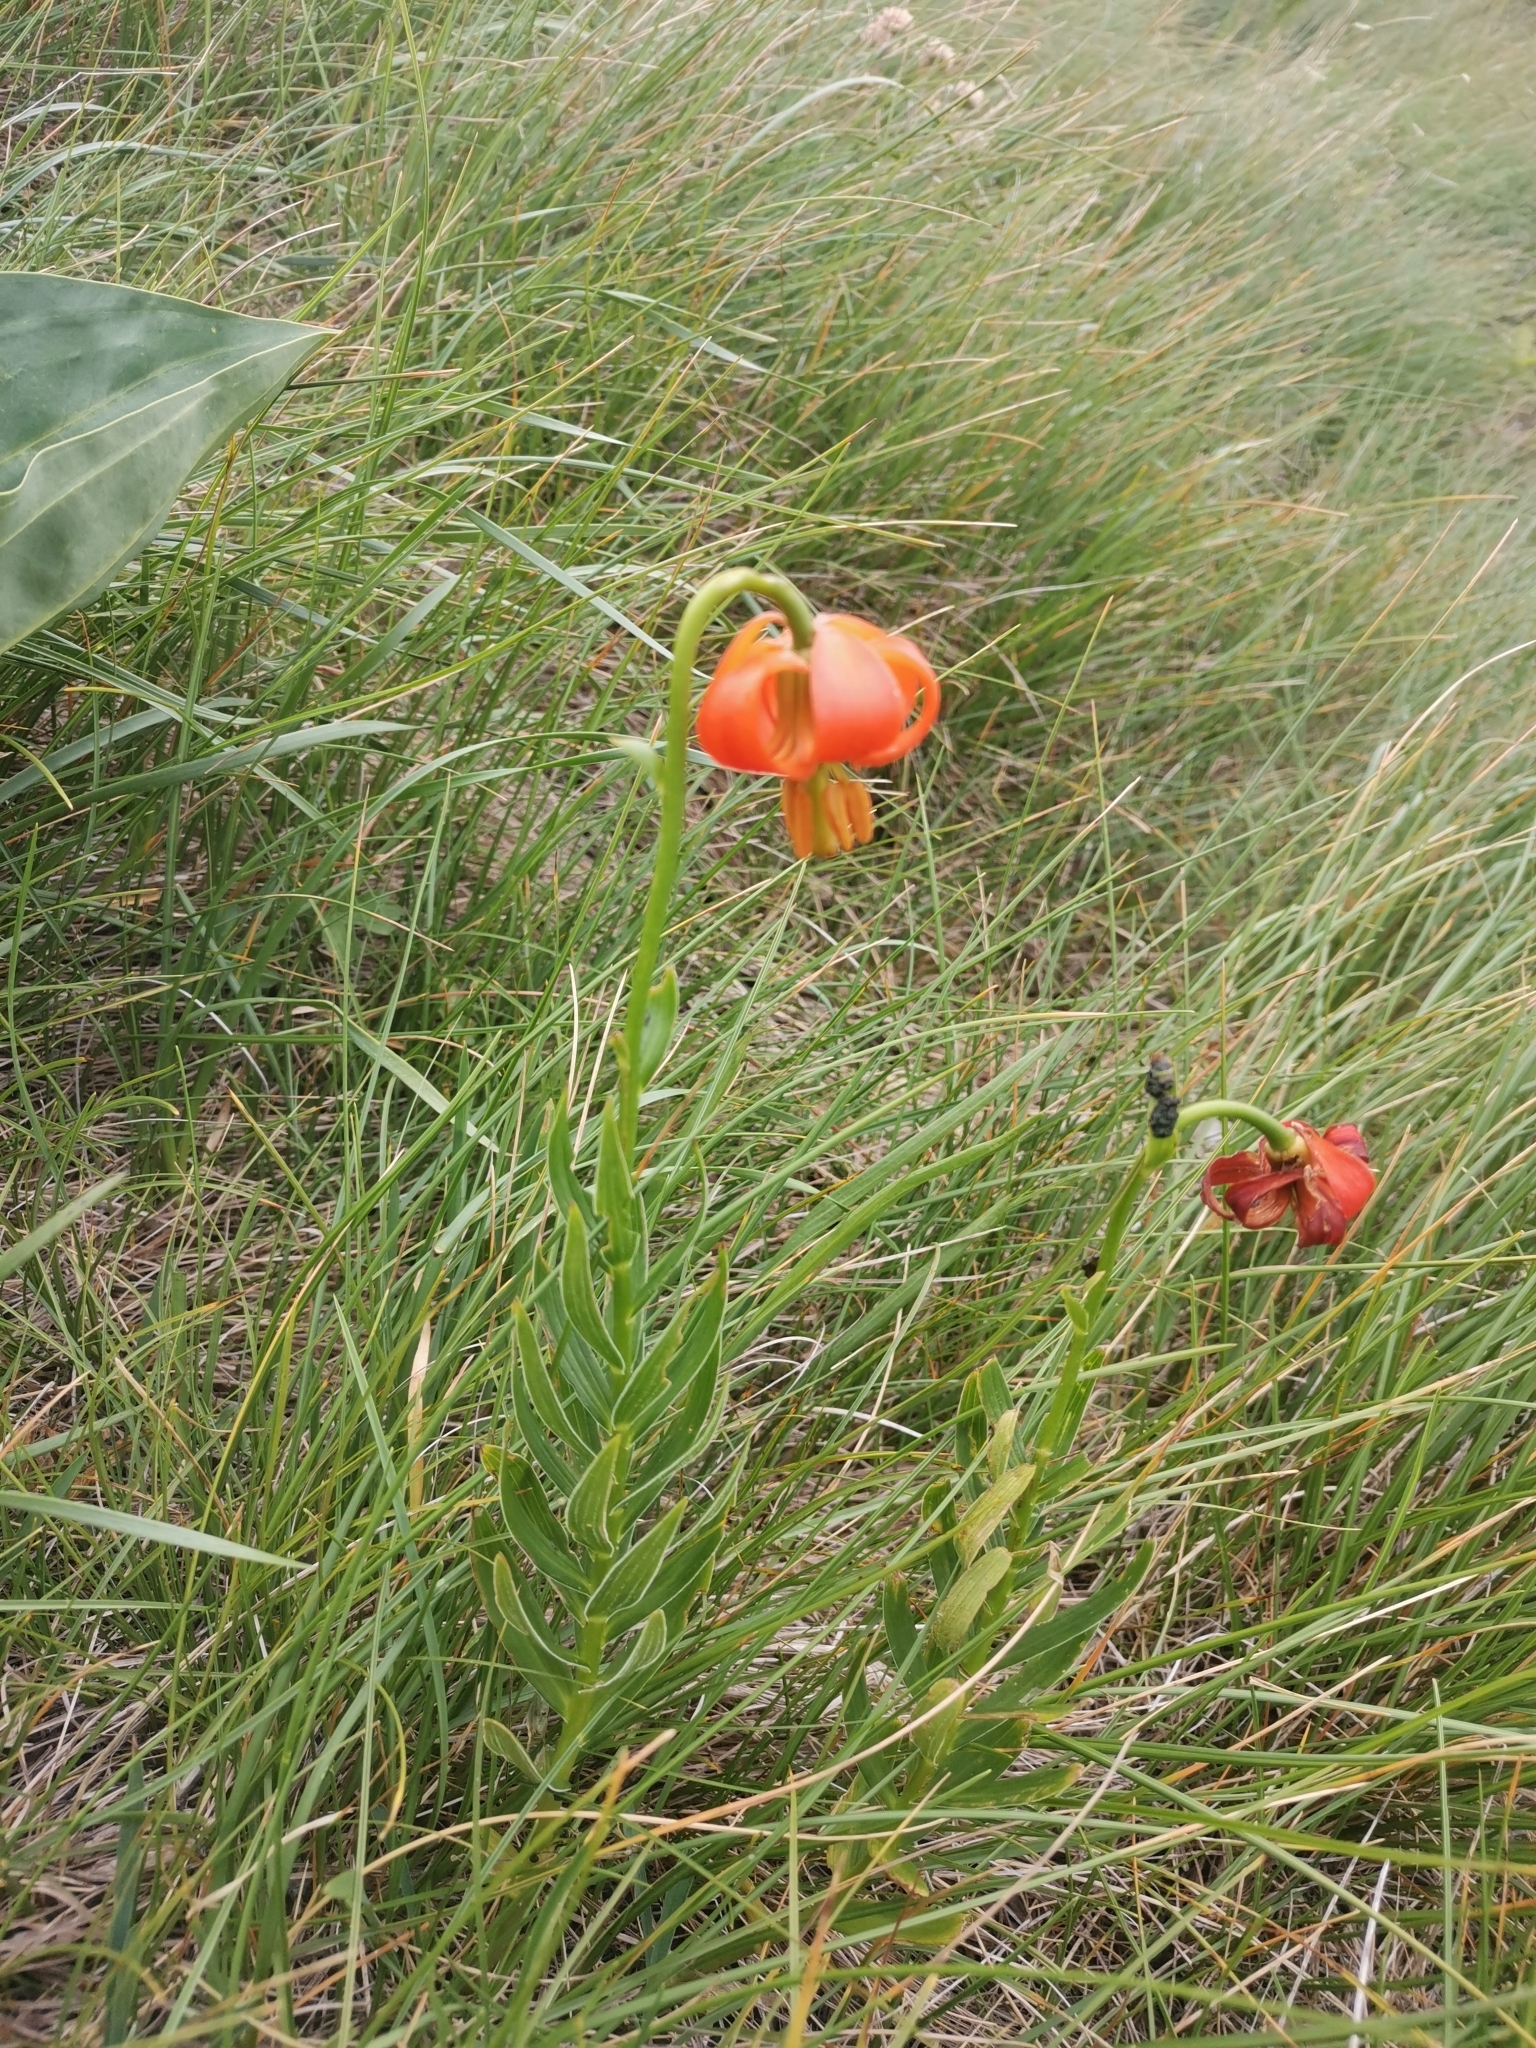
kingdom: Plantae
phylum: Tracheophyta
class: Liliopsida
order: Liliales
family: Liliaceae
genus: Lilium
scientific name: Lilium carniolicum
